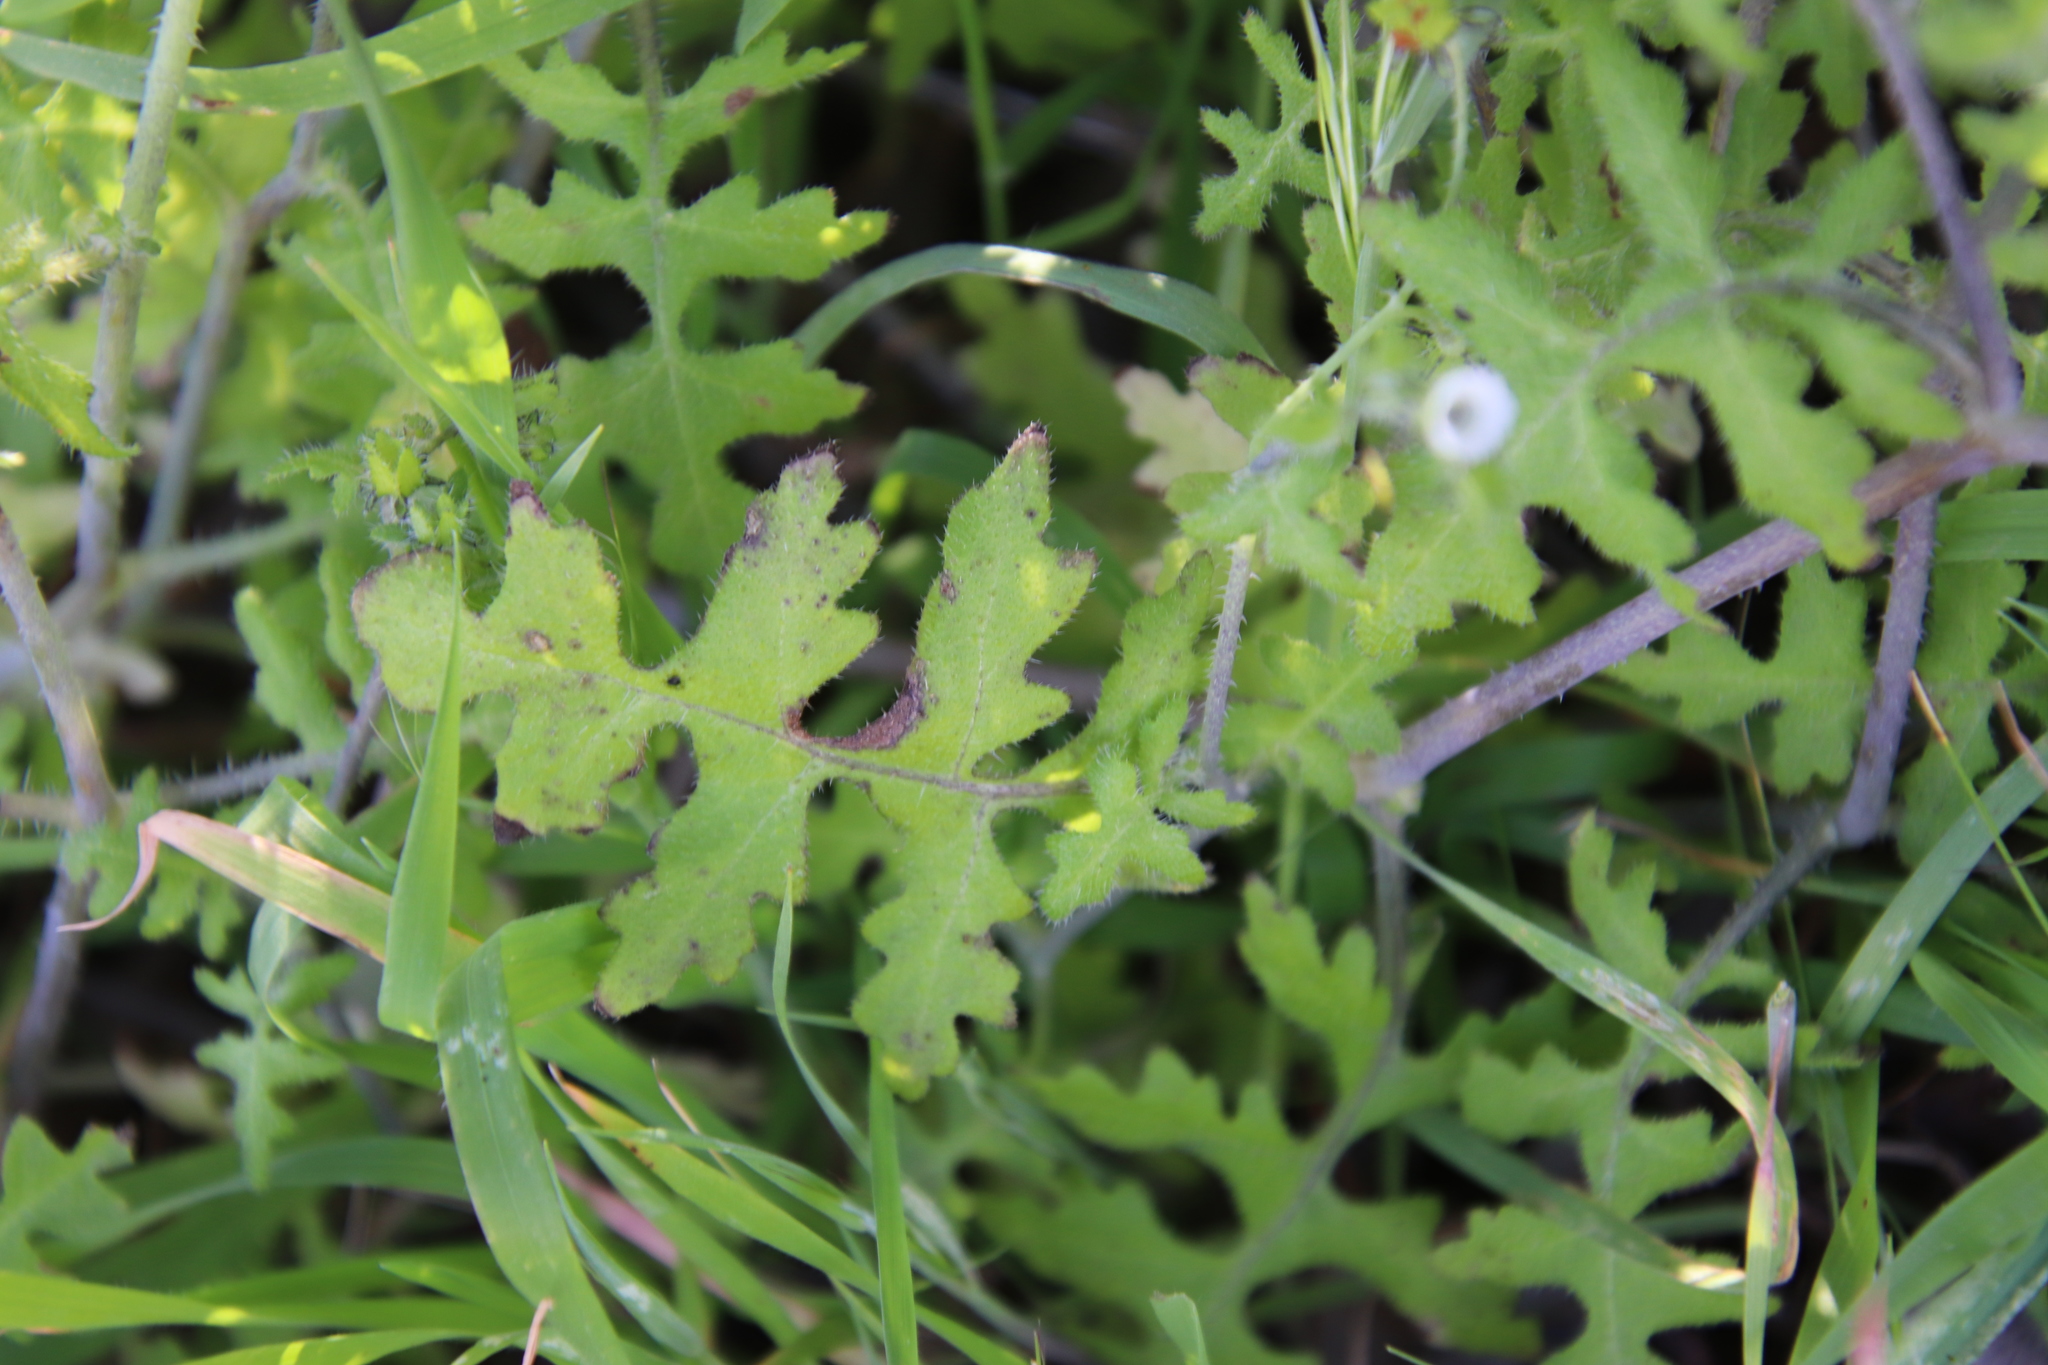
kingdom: Plantae
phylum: Tracheophyta
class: Magnoliopsida
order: Boraginales
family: Hydrophyllaceae
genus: Pholistoma
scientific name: Pholistoma racemosum
